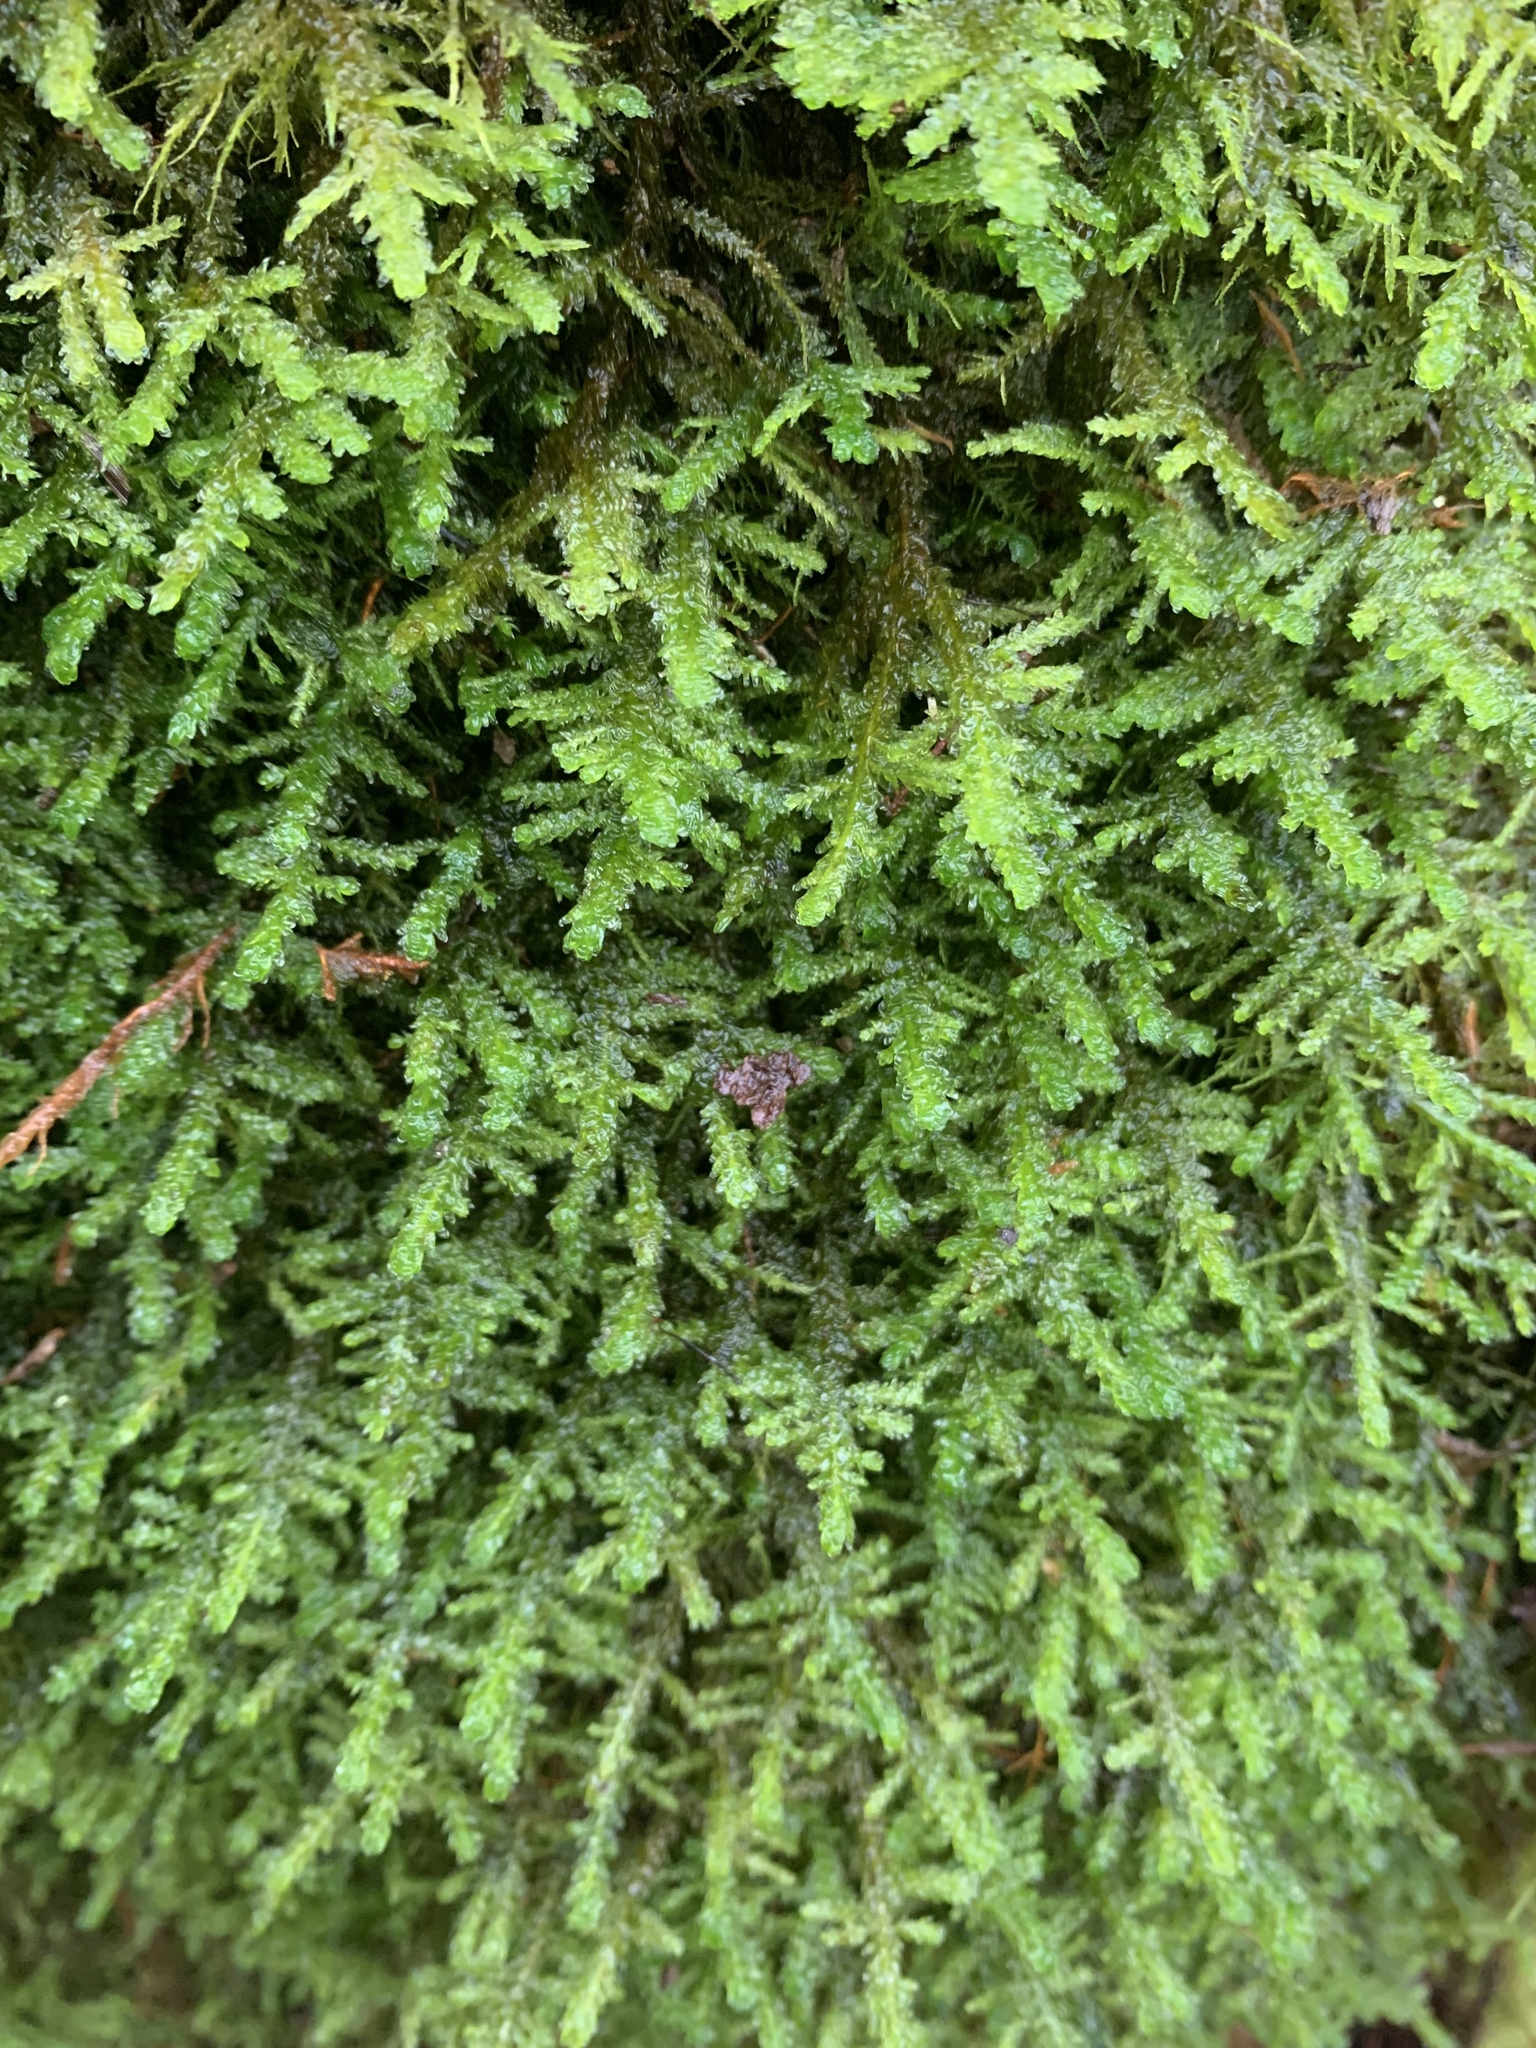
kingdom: Plantae
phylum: Bryophyta
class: Bryopsida
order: Hypnales
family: Neckeraceae
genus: Neckera
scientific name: Neckera douglasii
